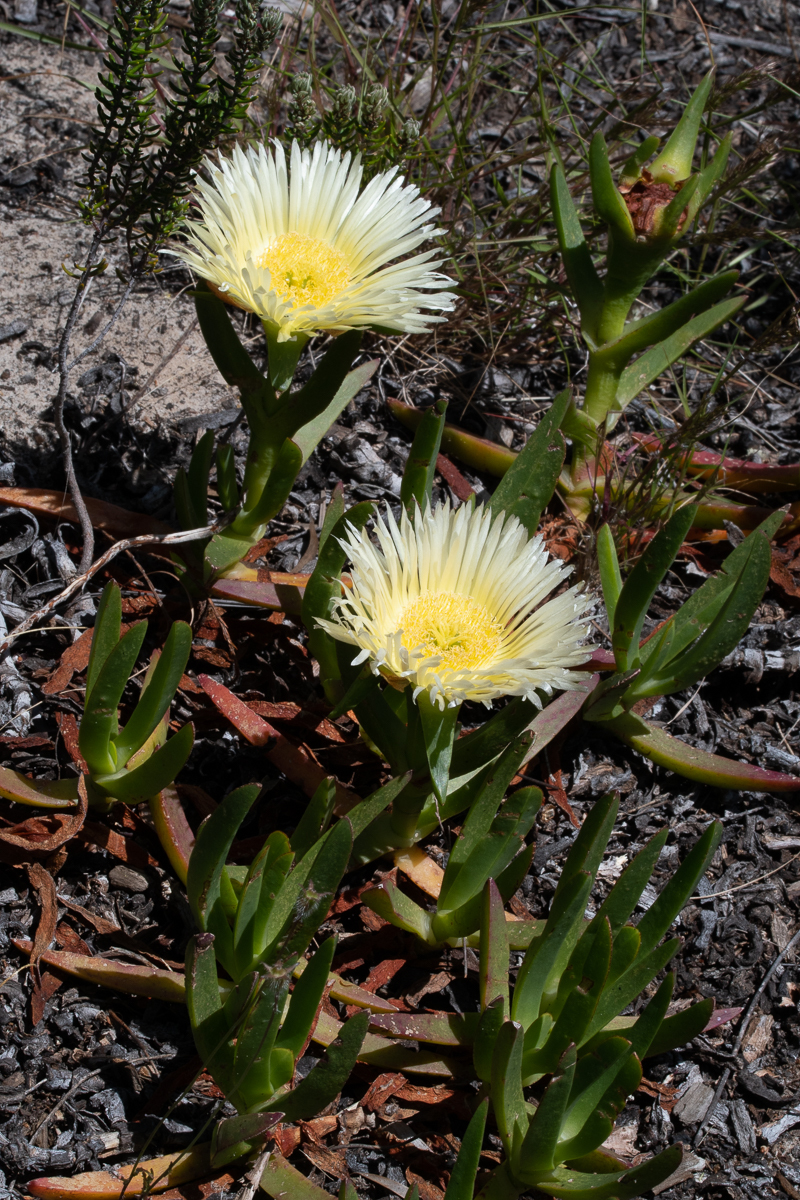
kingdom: Plantae
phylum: Tracheophyta
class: Magnoliopsida
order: Caryophyllales
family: Aizoaceae
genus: Carpobrotus
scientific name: Carpobrotus edulis
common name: Hottentot-fig
